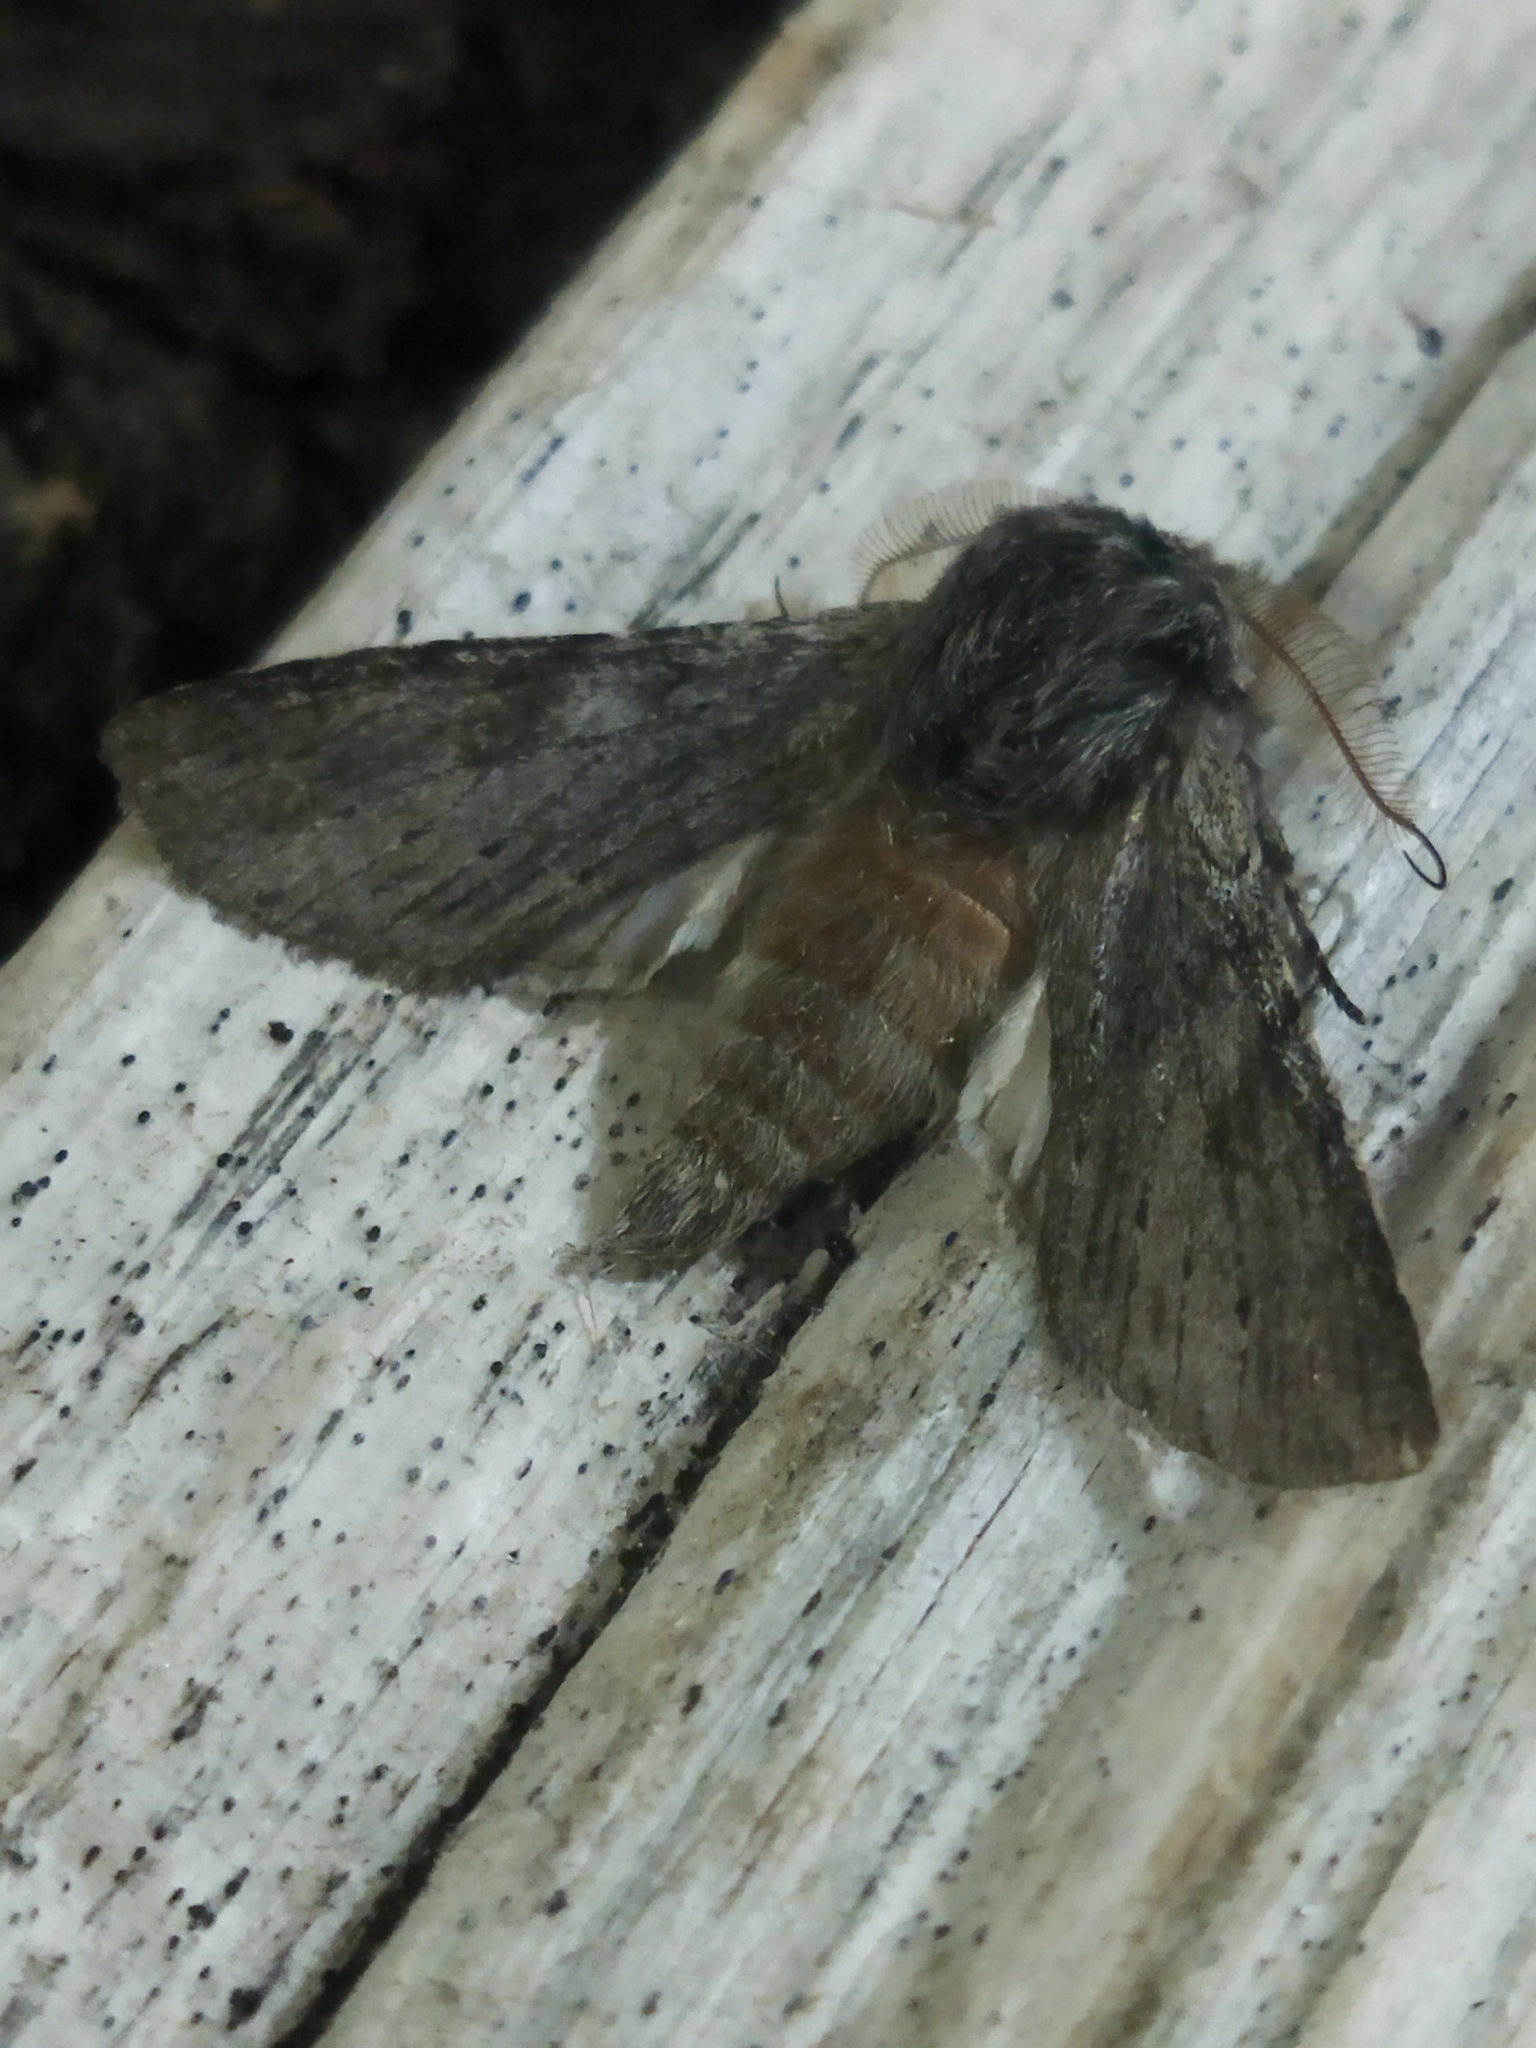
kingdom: Animalia
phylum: Arthropoda
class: Insecta
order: Lepidoptera
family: Notodontidae
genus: Dicranura
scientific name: Dicranura ulmi
